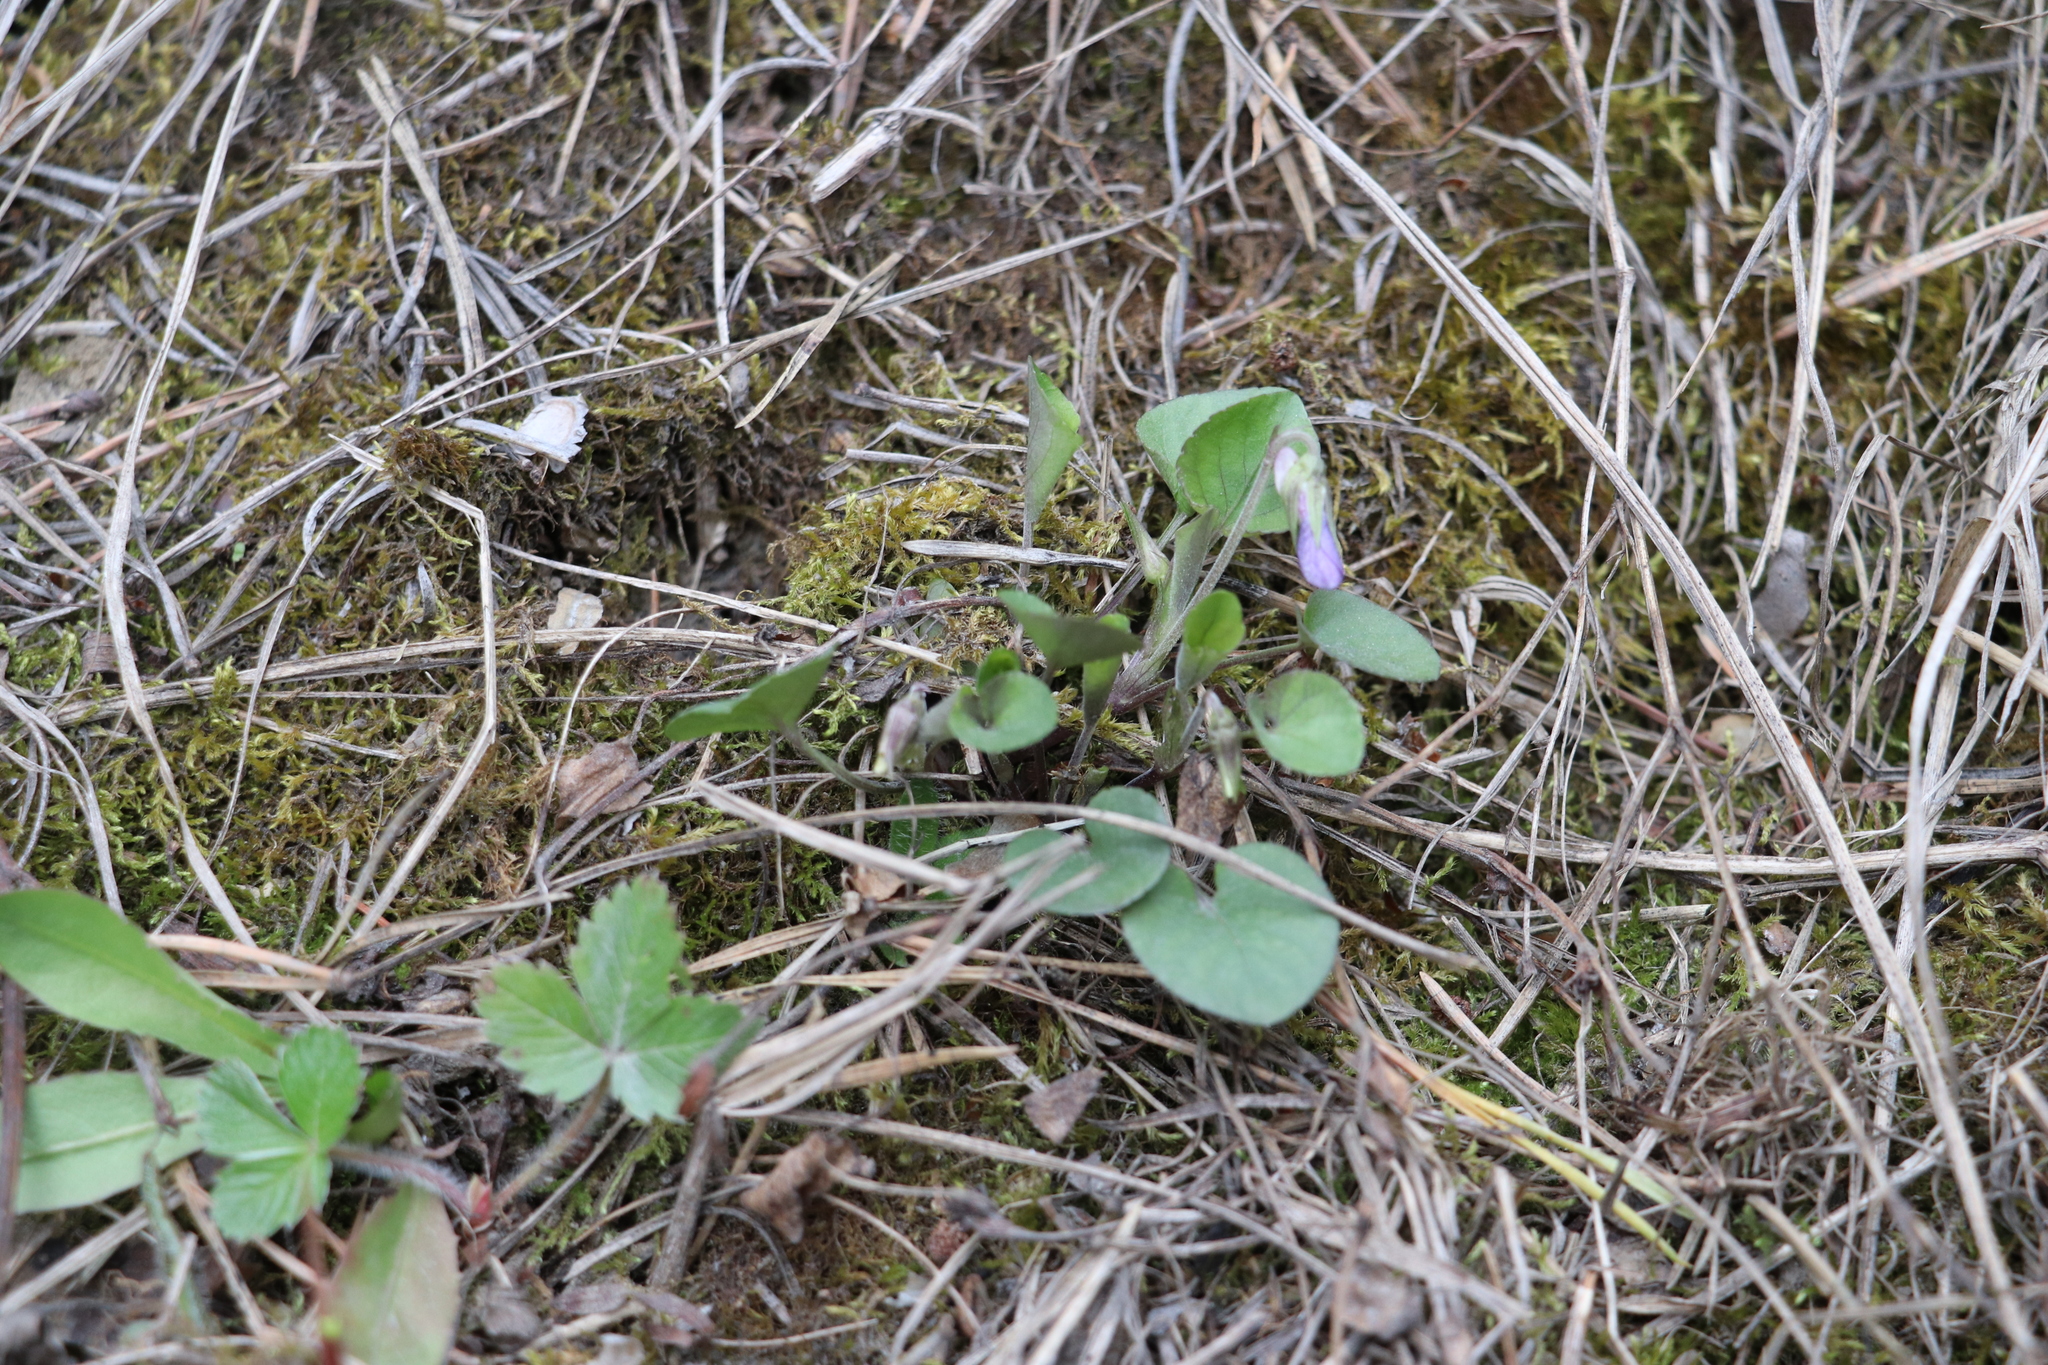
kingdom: Plantae
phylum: Tracheophyta
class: Magnoliopsida
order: Malpighiales
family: Violaceae
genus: Viola
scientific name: Viola rupestris
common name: Teesdale violet
